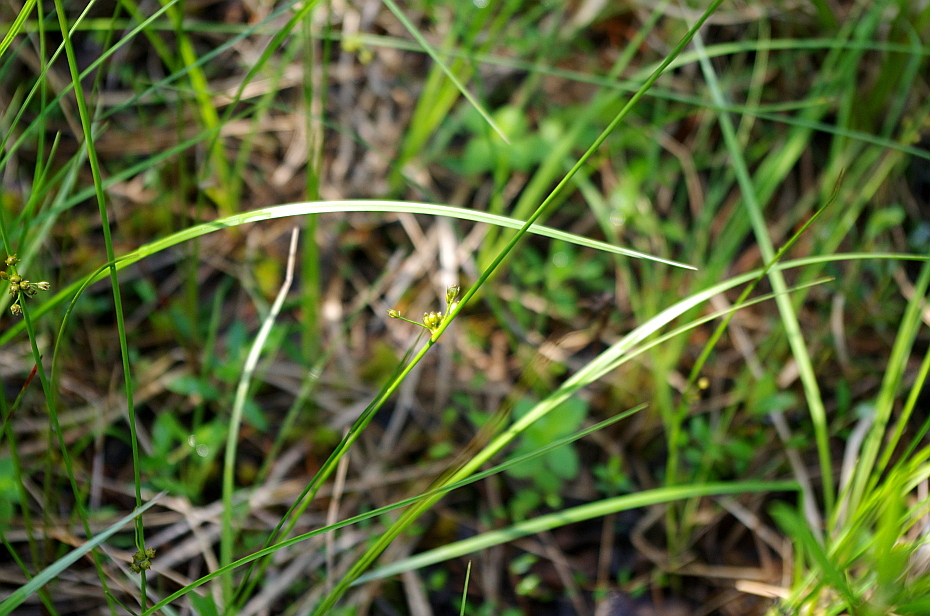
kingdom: Plantae
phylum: Tracheophyta
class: Liliopsida
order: Poales
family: Juncaceae
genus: Juncus
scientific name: Juncus filiformis
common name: Thread rush
